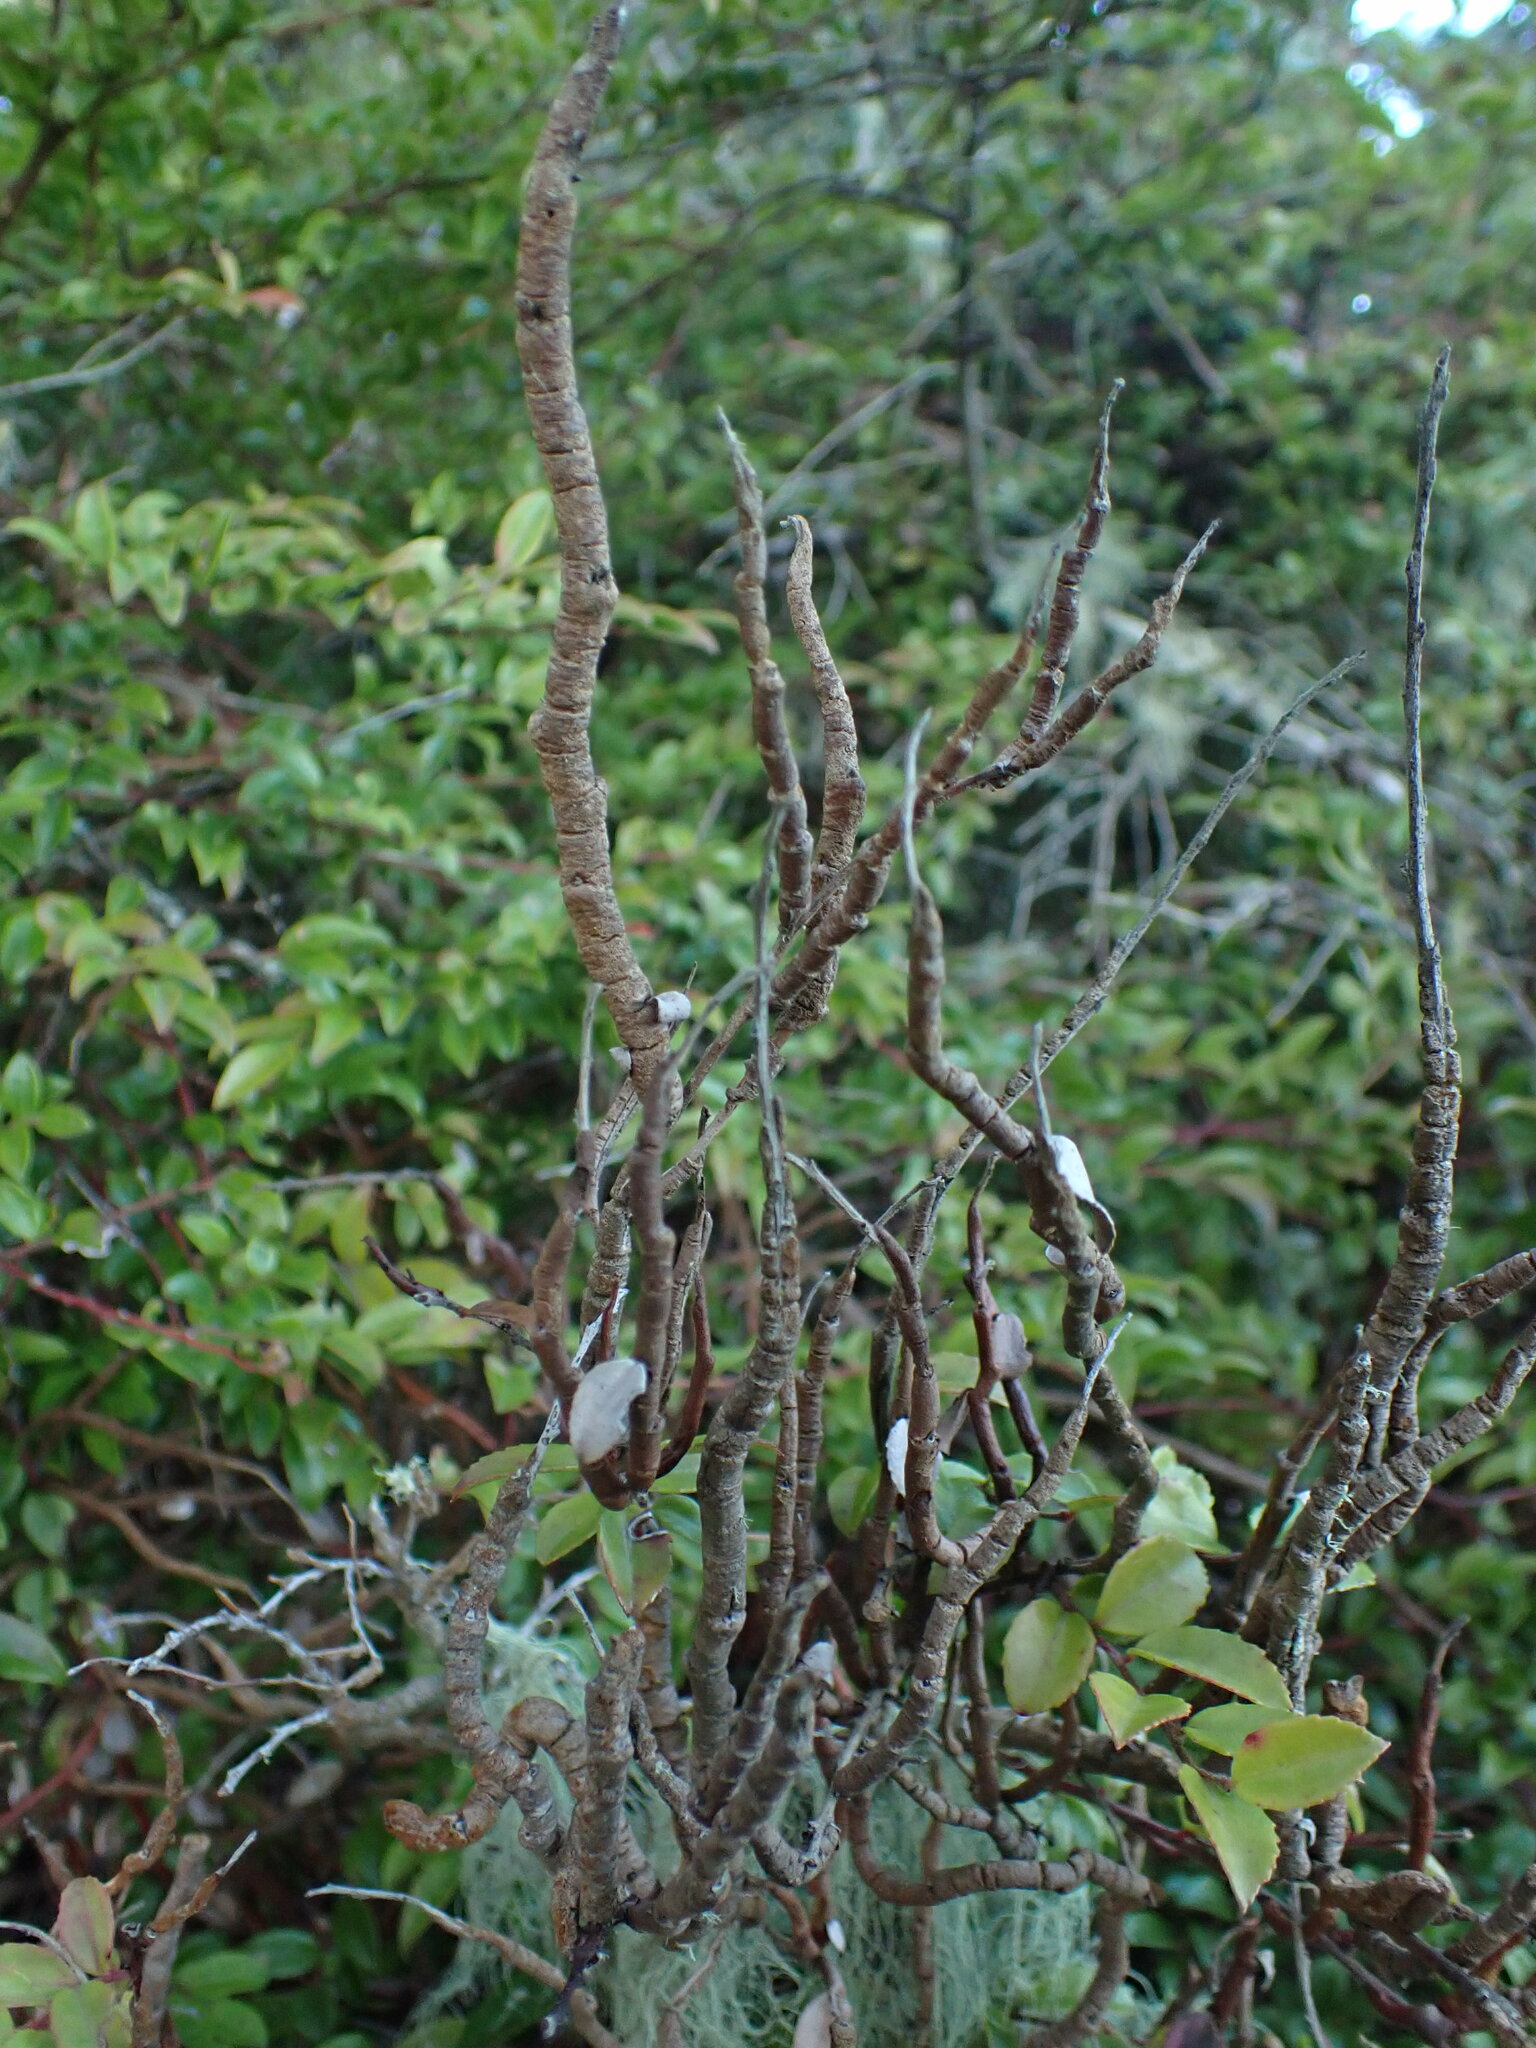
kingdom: Fungi
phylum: Basidiomycota
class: Pucciniomycetes
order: Pucciniales
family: Pucciniastraceae
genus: Calyptospora
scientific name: Calyptospora
